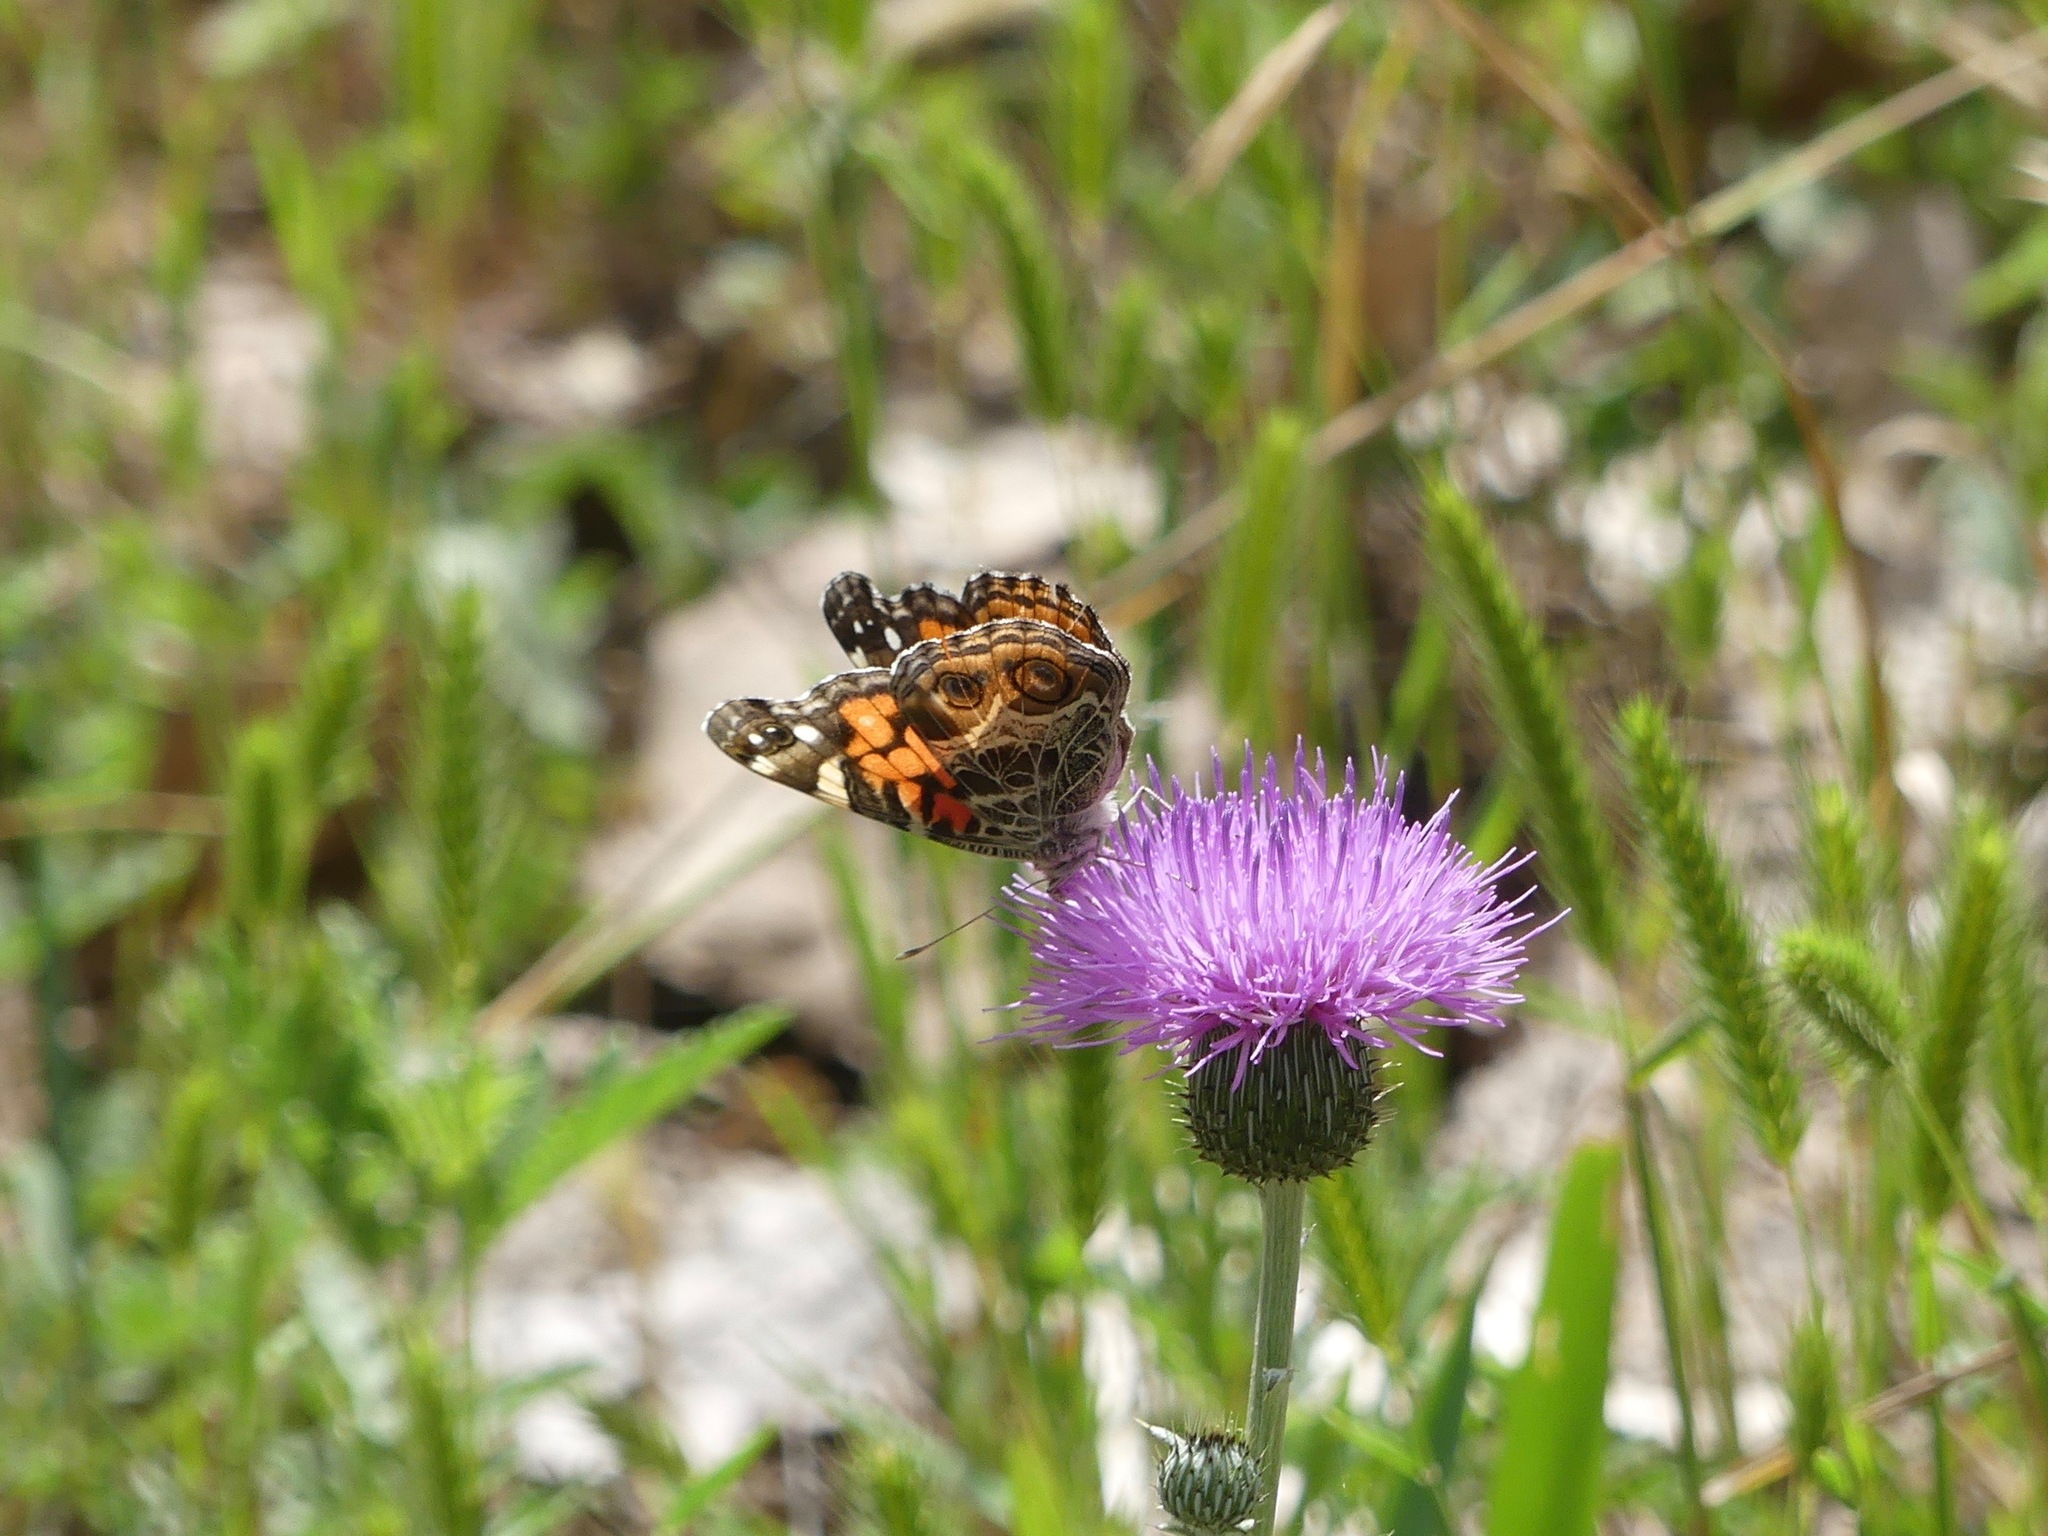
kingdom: Animalia
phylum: Arthropoda
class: Insecta
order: Lepidoptera
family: Nymphalidae
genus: Vanessa
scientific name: Vanessa virginiensis
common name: American lady
